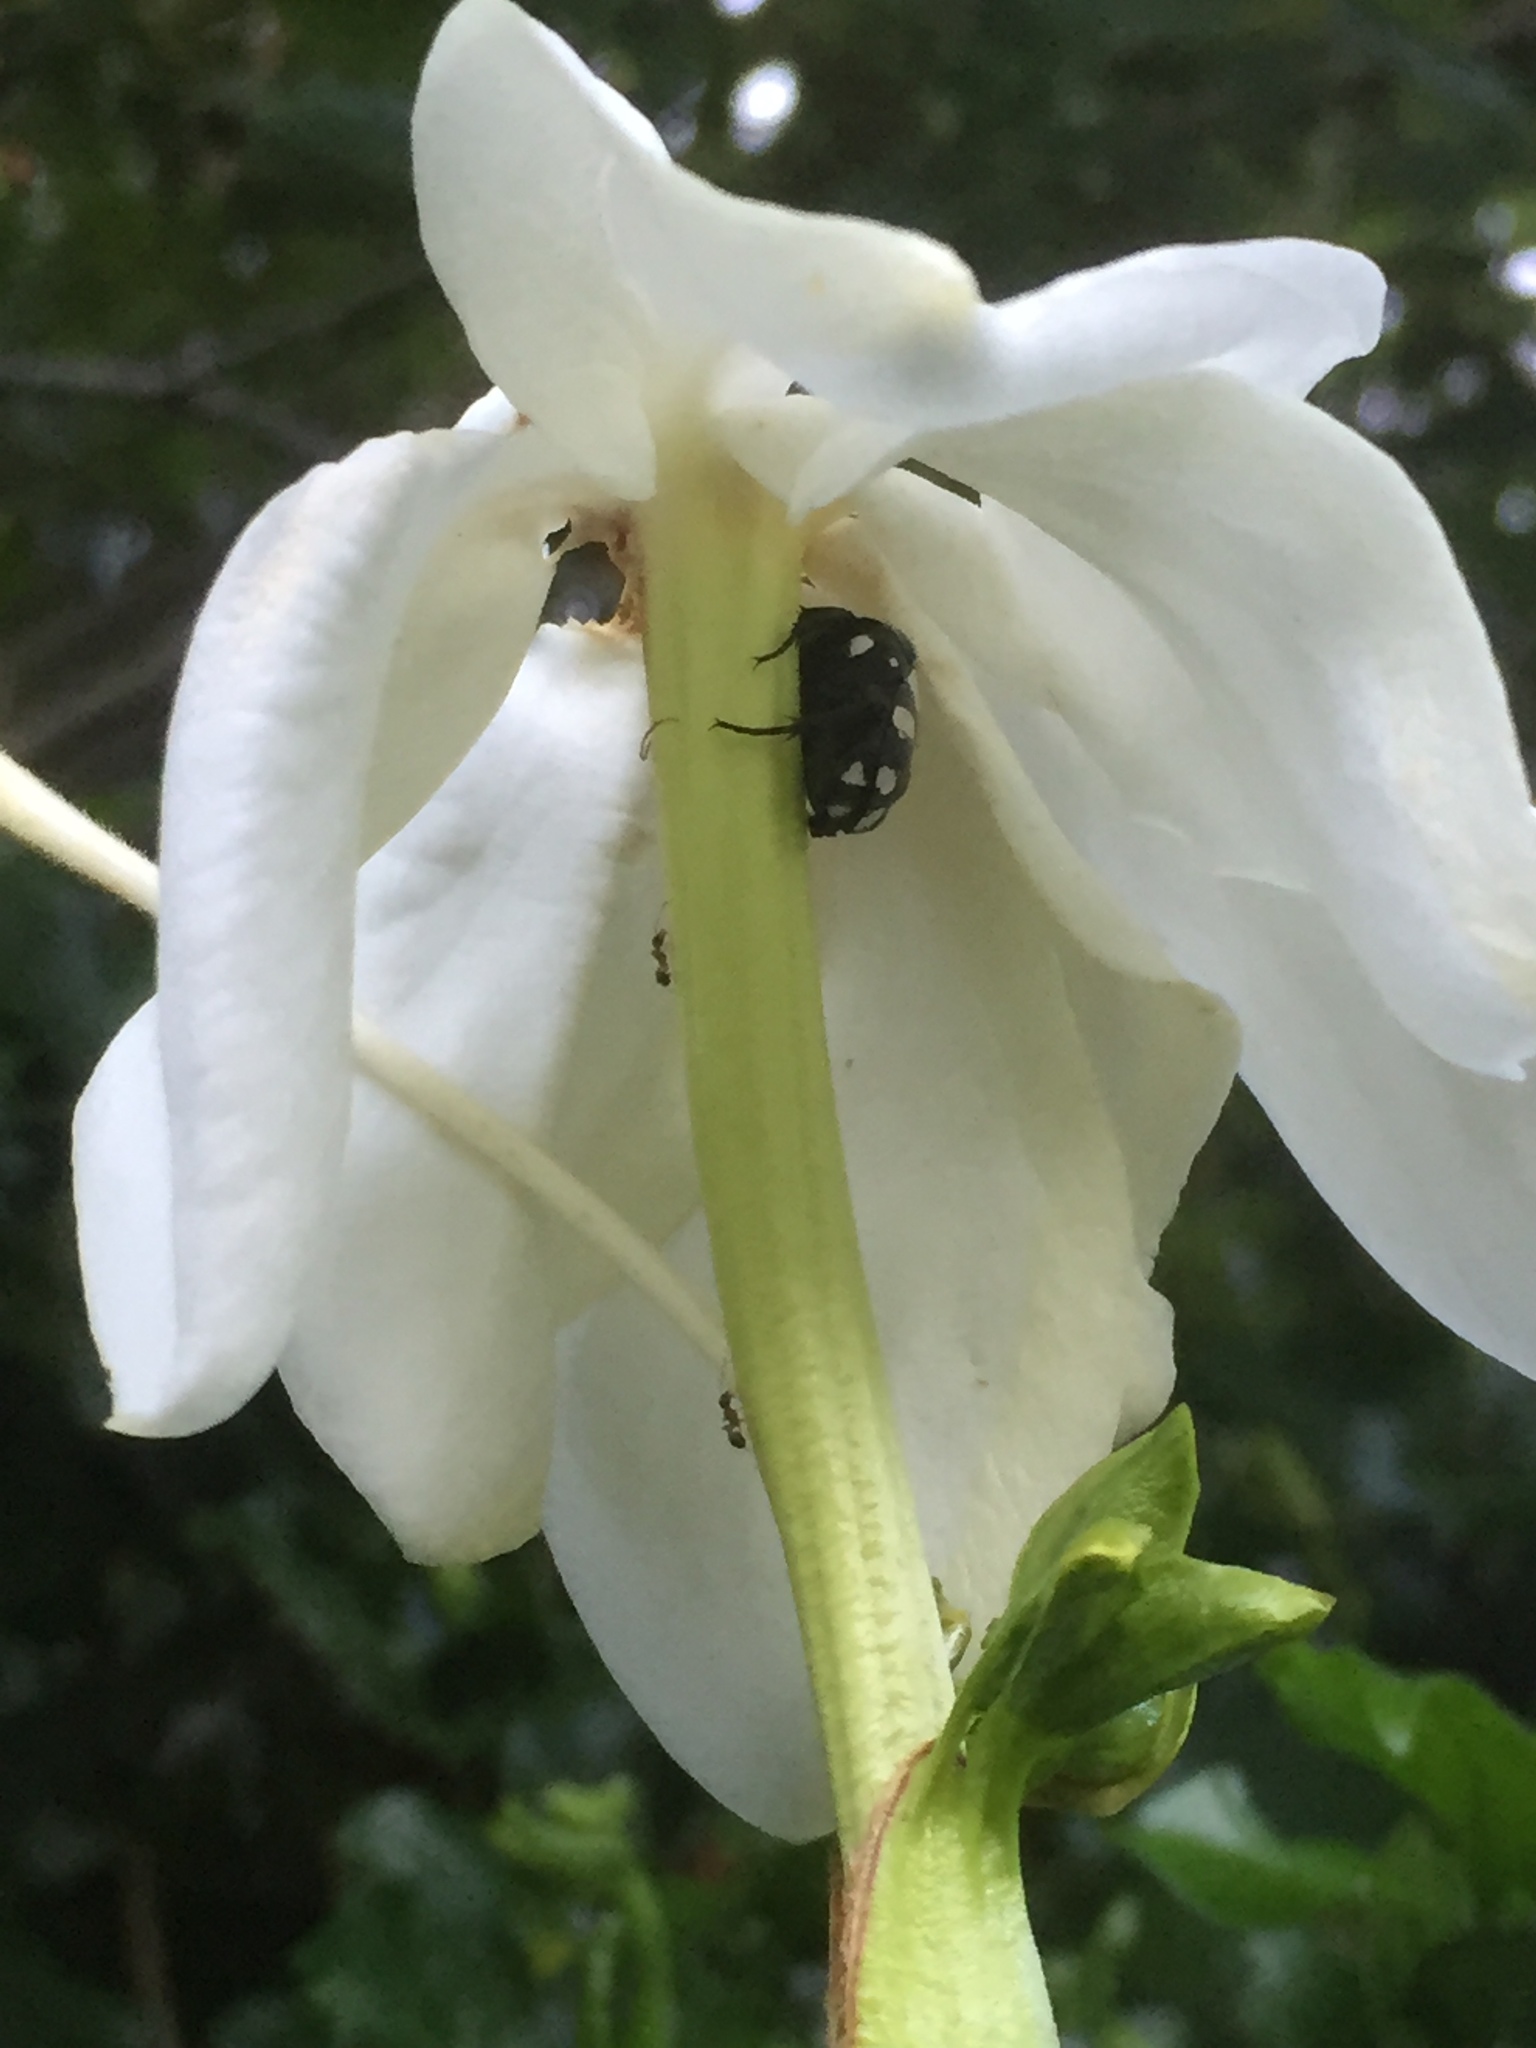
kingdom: Animalia
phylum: Arthropoda
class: Insecta
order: Coleoptera
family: Scarabaeidae
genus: Mausoleopsis
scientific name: Mausoleopsis amabilis
